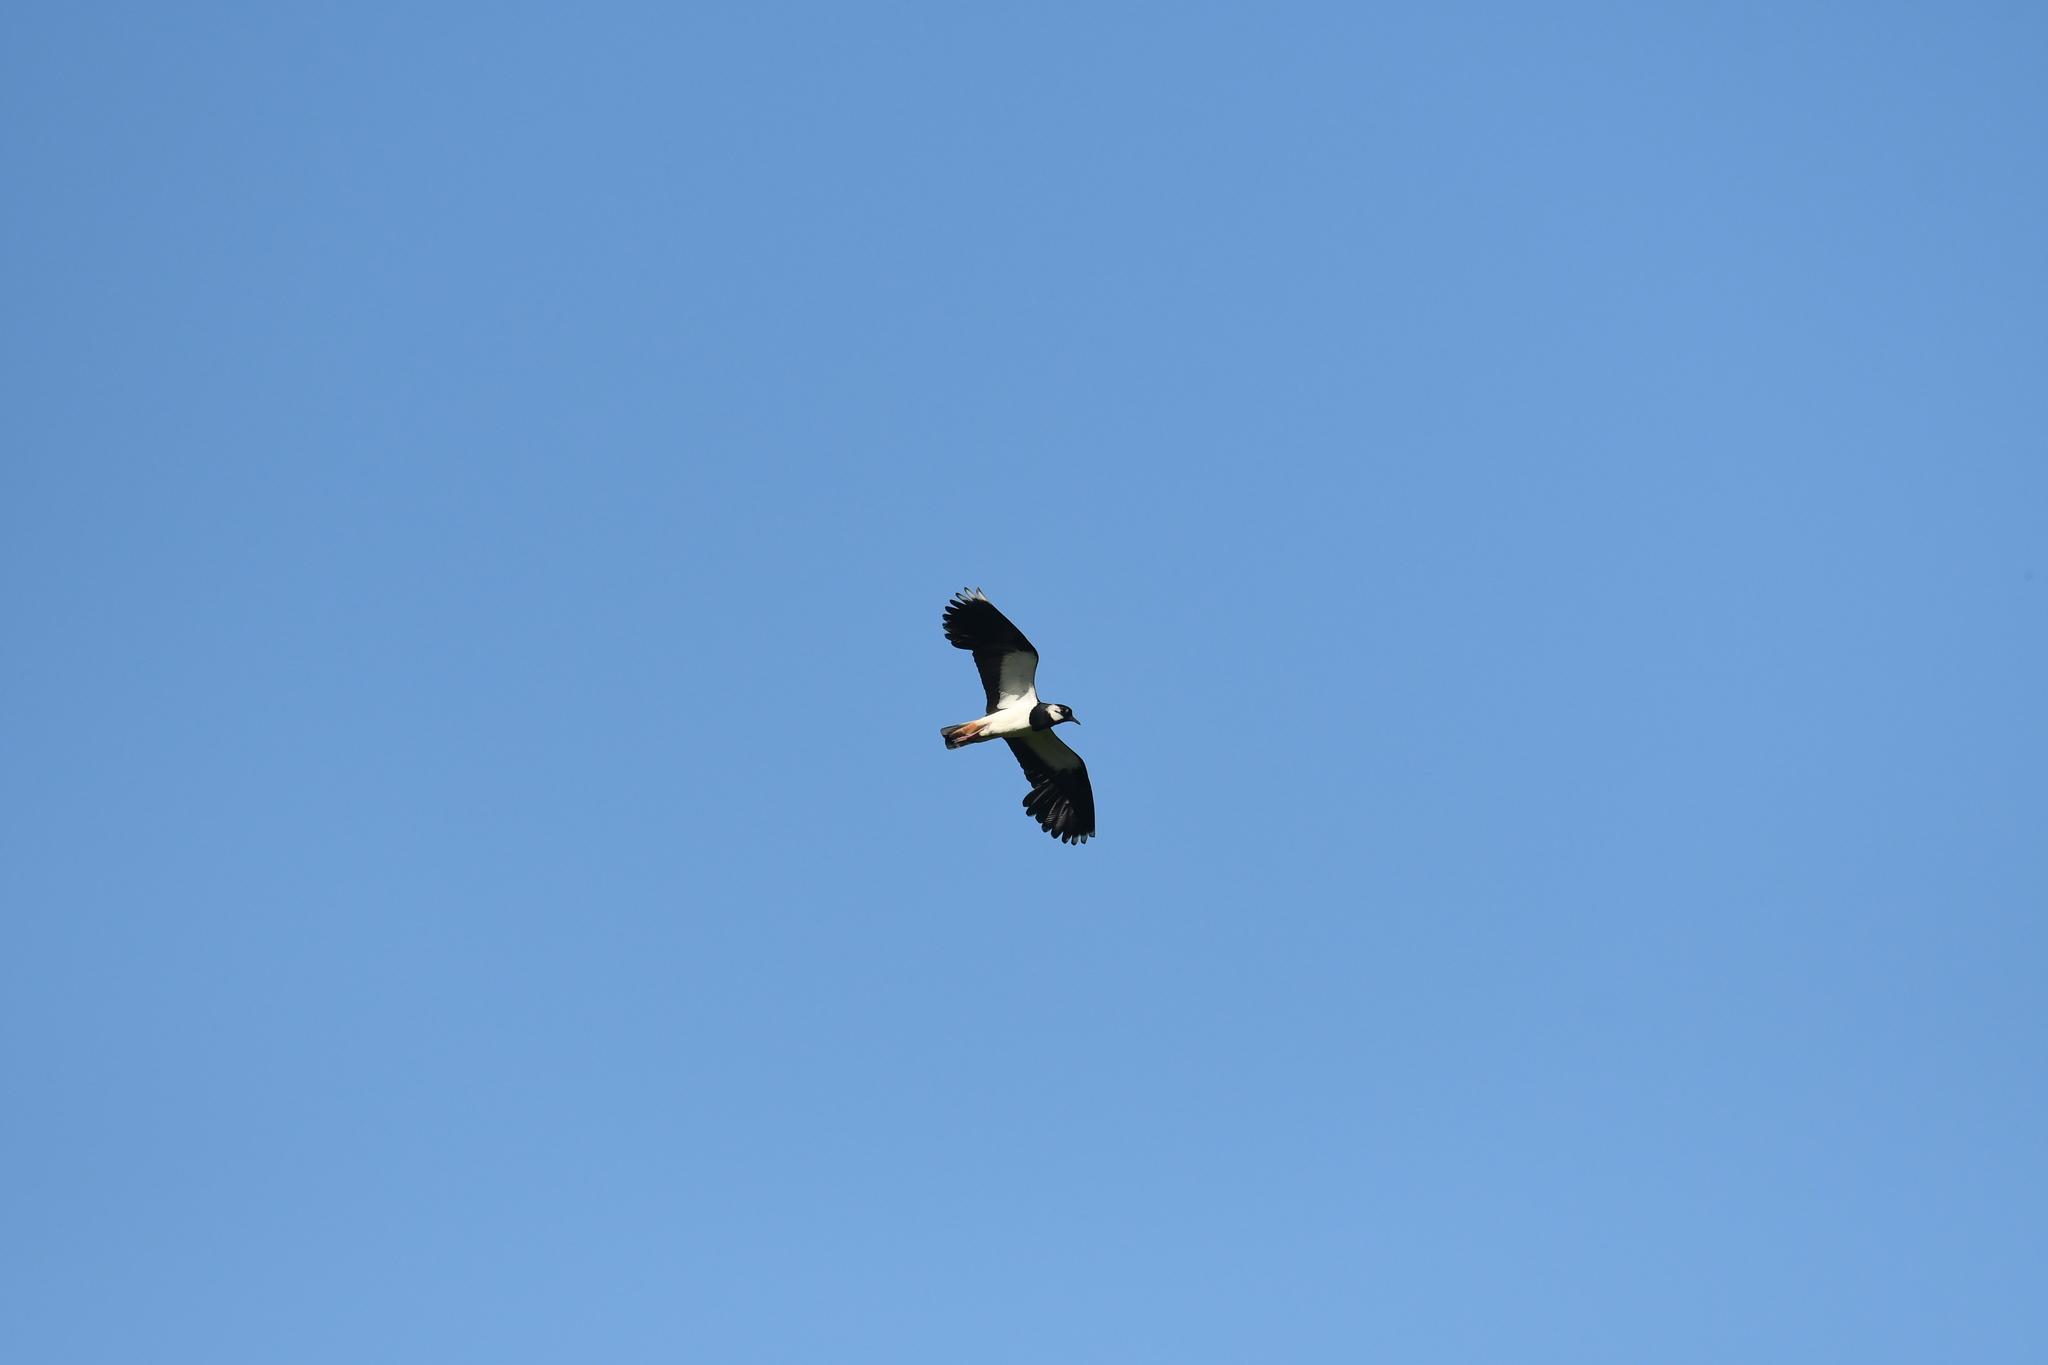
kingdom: Animalia
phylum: Chordata
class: Aves
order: Charadriiformes
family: Charadriidae
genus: Vanellus
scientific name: Vanellus vanellus
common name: Northern lapwing
